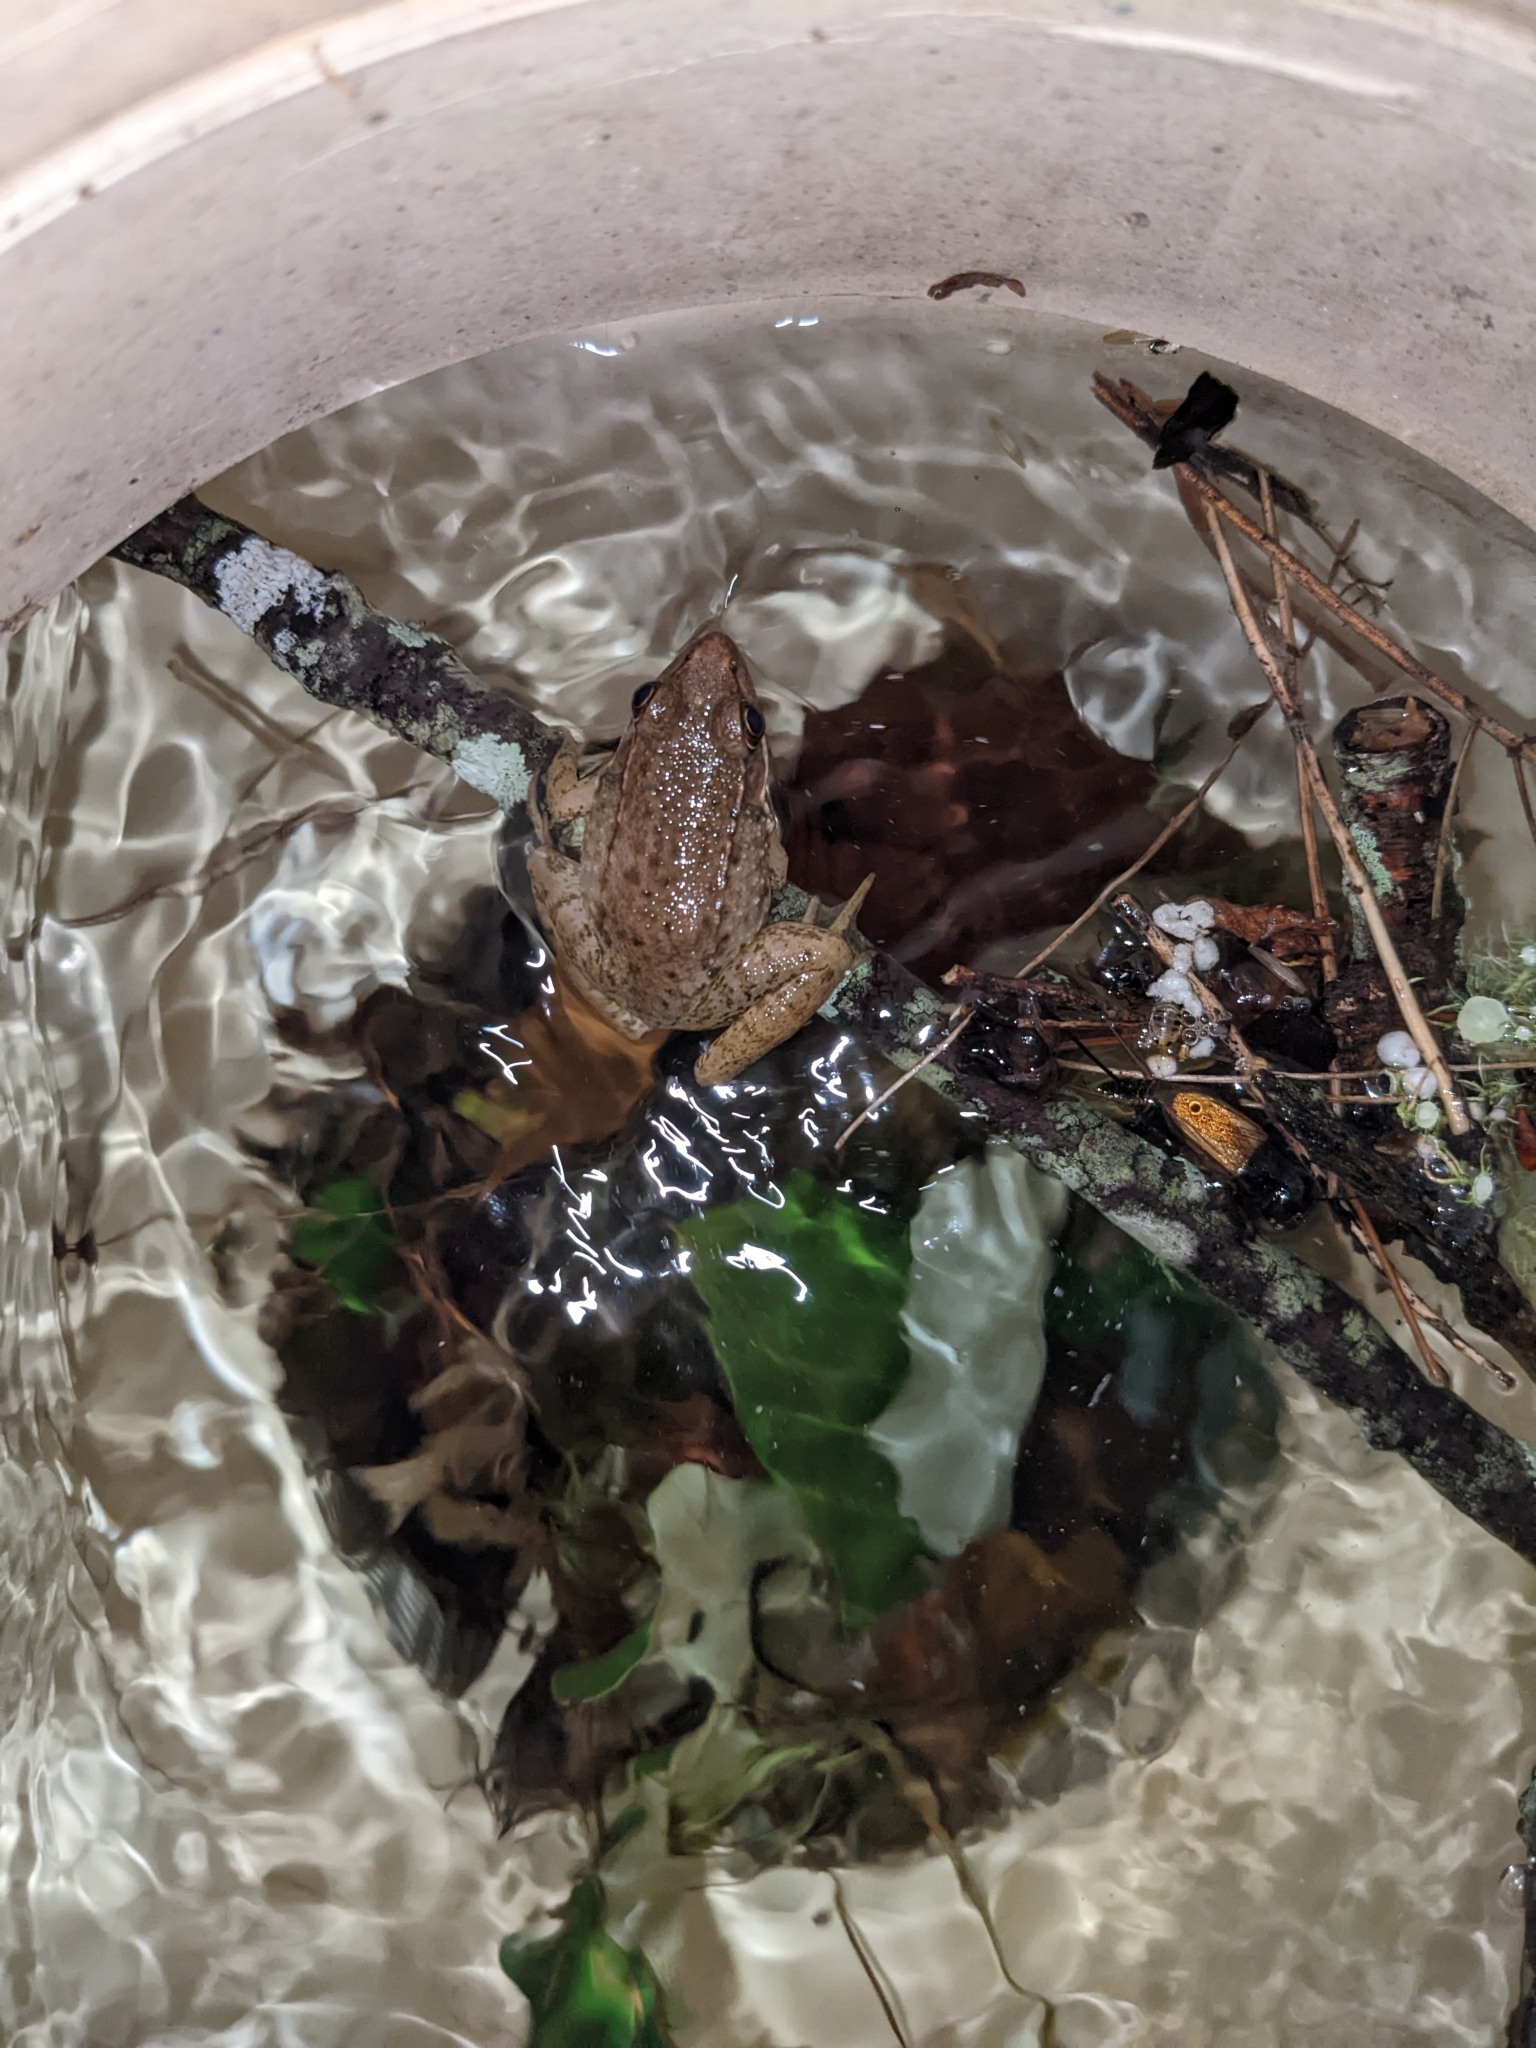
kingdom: Animalia
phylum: Chordata
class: Amphibia
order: Anura
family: Ranidae
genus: Lithobates
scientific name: Lithobates clamitans
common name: Green frog
